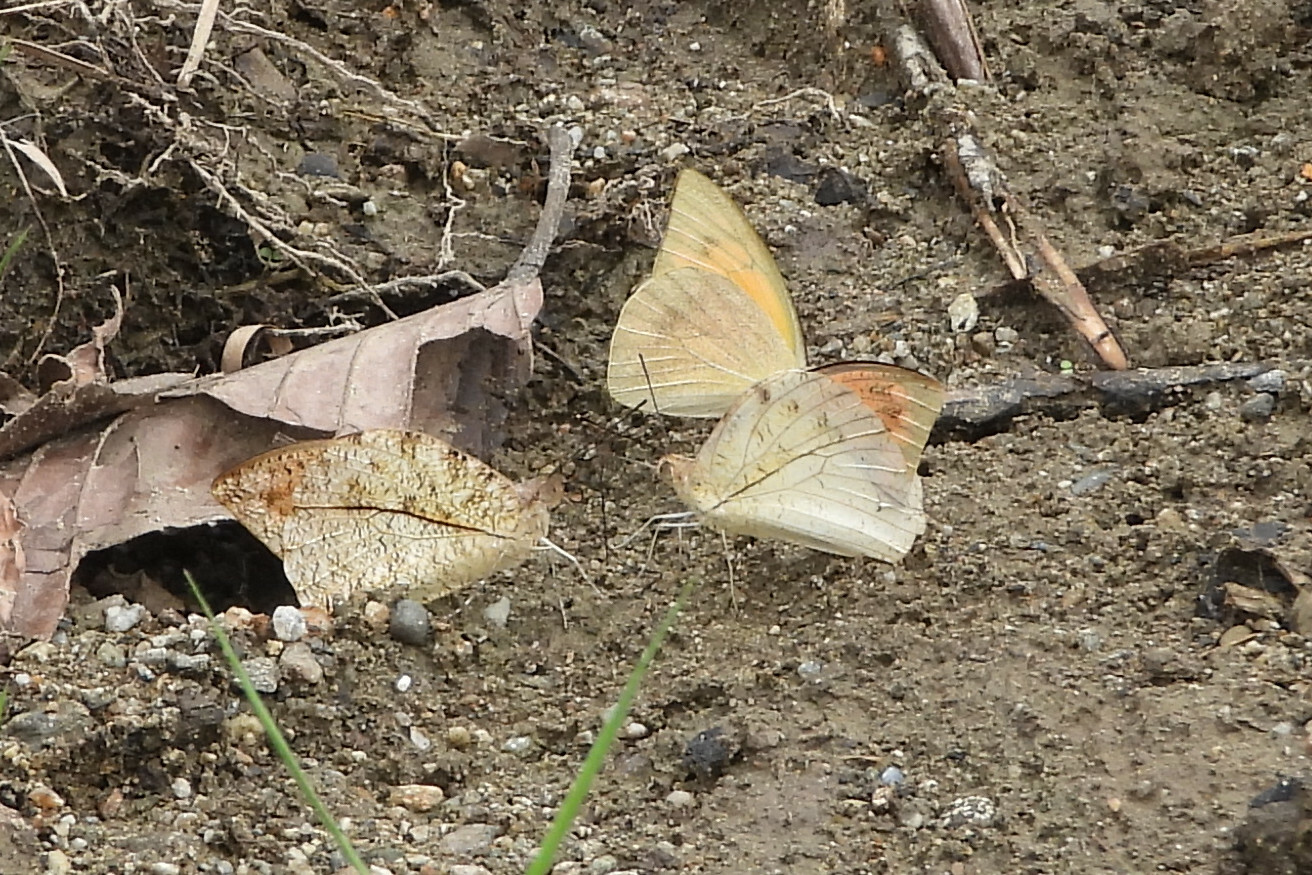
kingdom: Animalia
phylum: Arthropoda
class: Insecta
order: Lepidoptera
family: Pieridae
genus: Hebomoia
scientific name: Hebomoia glaucippe
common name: Great orange tip
